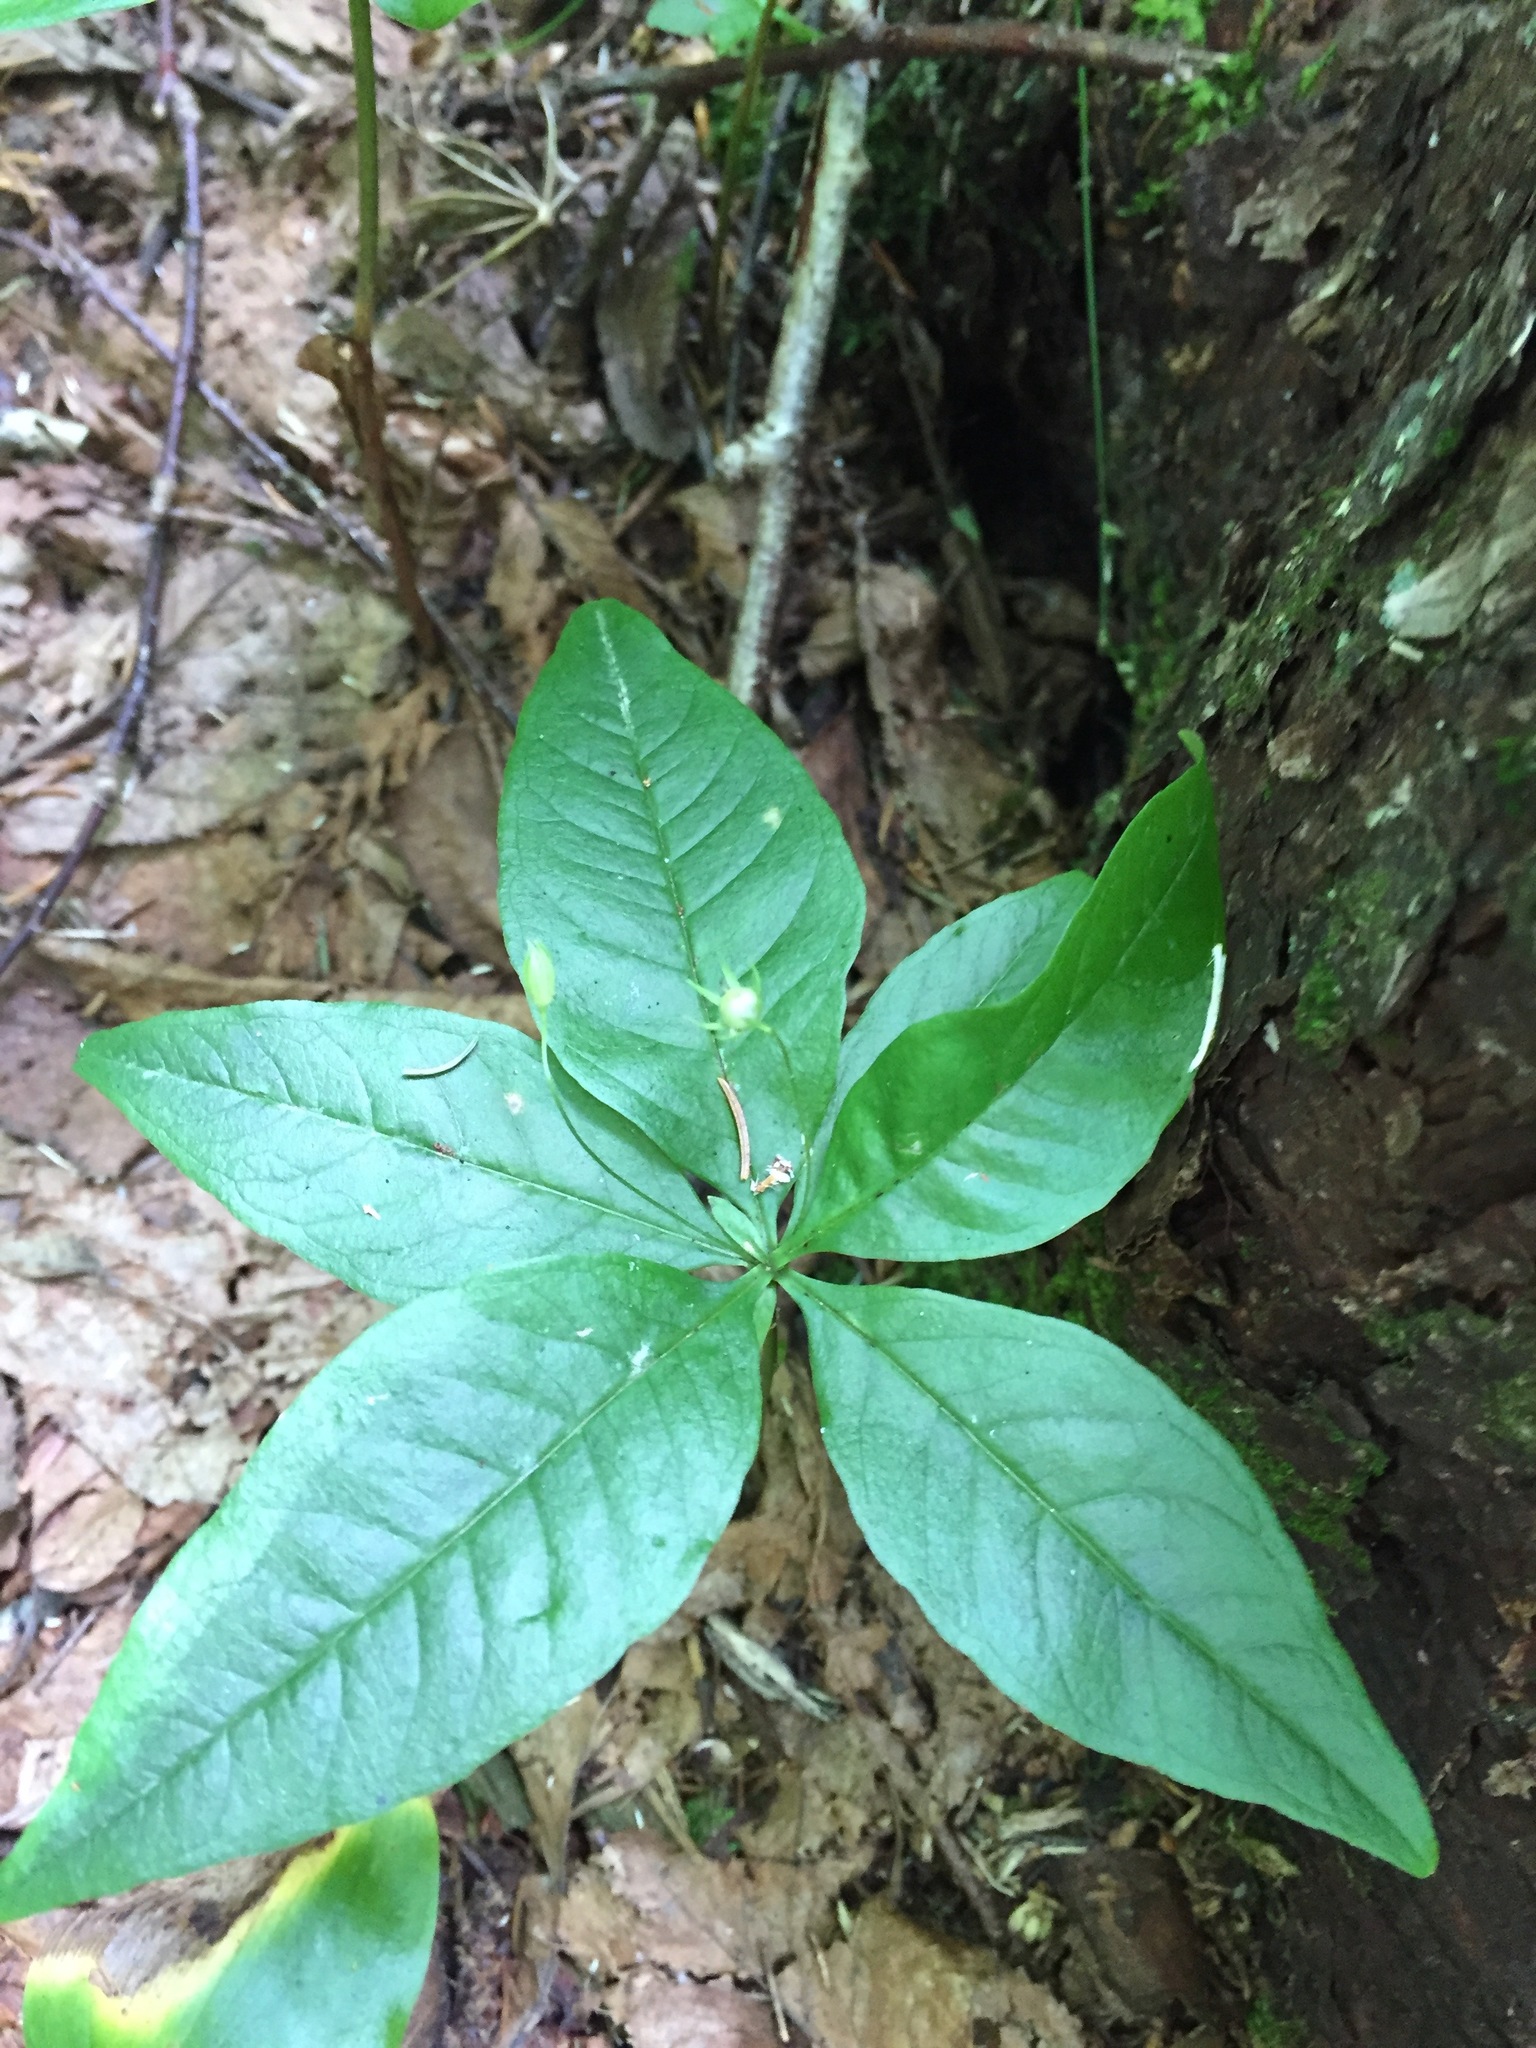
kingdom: Plantae
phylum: Tracheophyta
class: Magnoliopsida
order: Ericales
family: Primulaceae
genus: Lysimachia
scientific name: Lysimachia borealis
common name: American starflower
